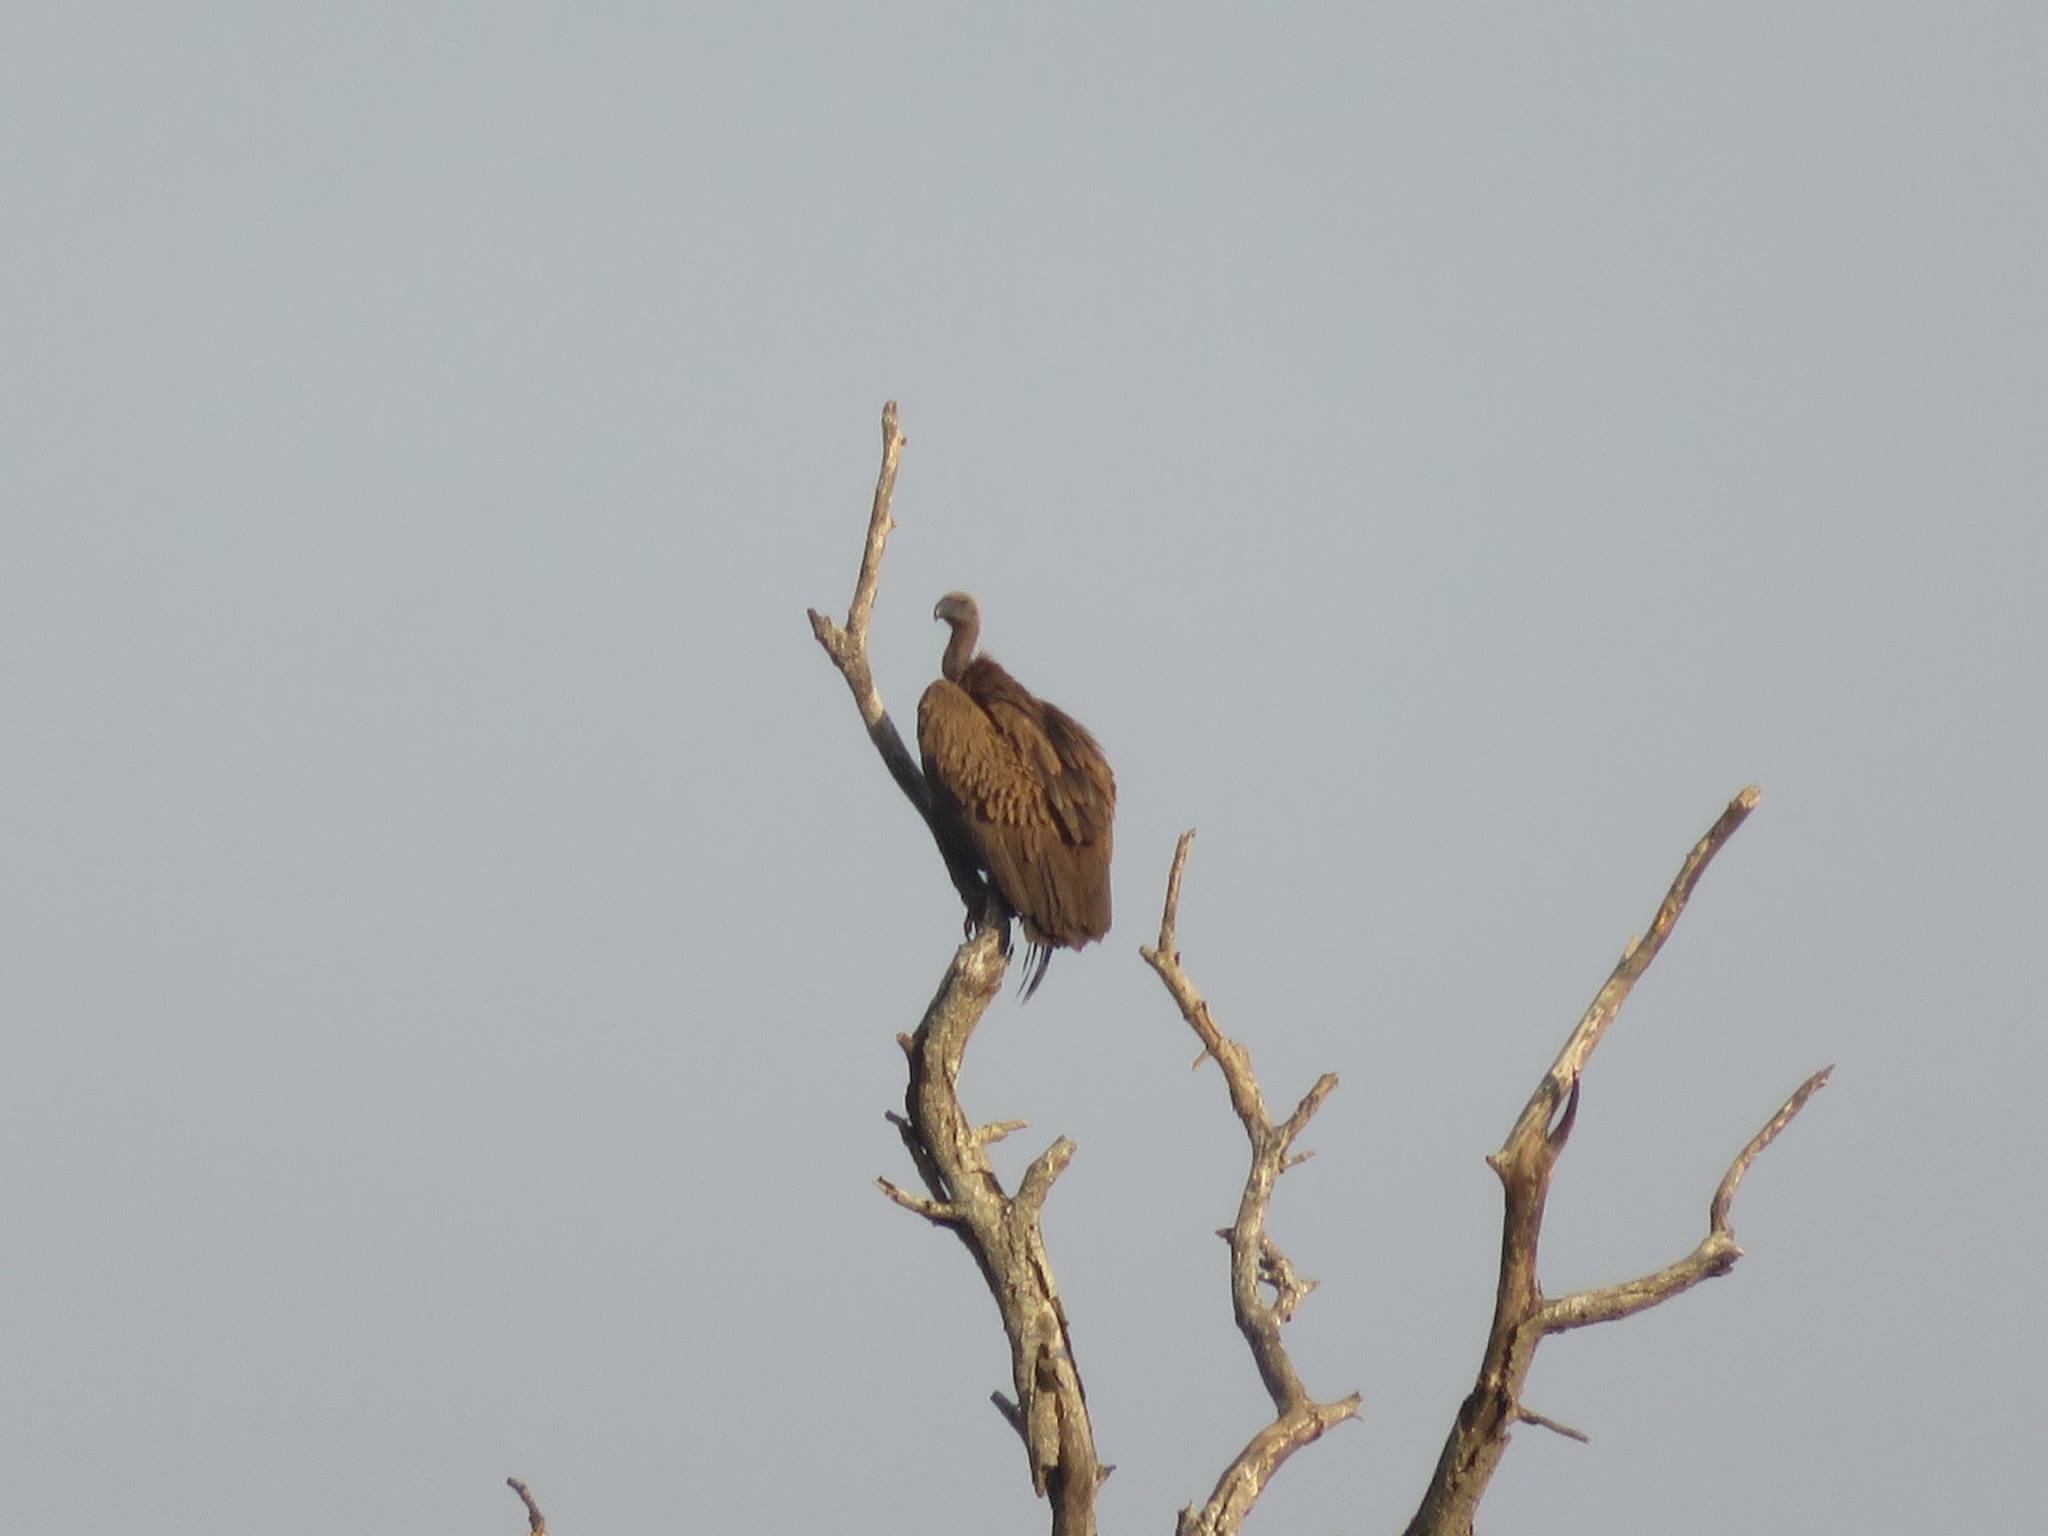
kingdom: Animalia
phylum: Chordata
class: Aves
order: Accipitriformes
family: Accipitridae
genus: Gyps
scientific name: Gyps africanus
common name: White-backed vulture
